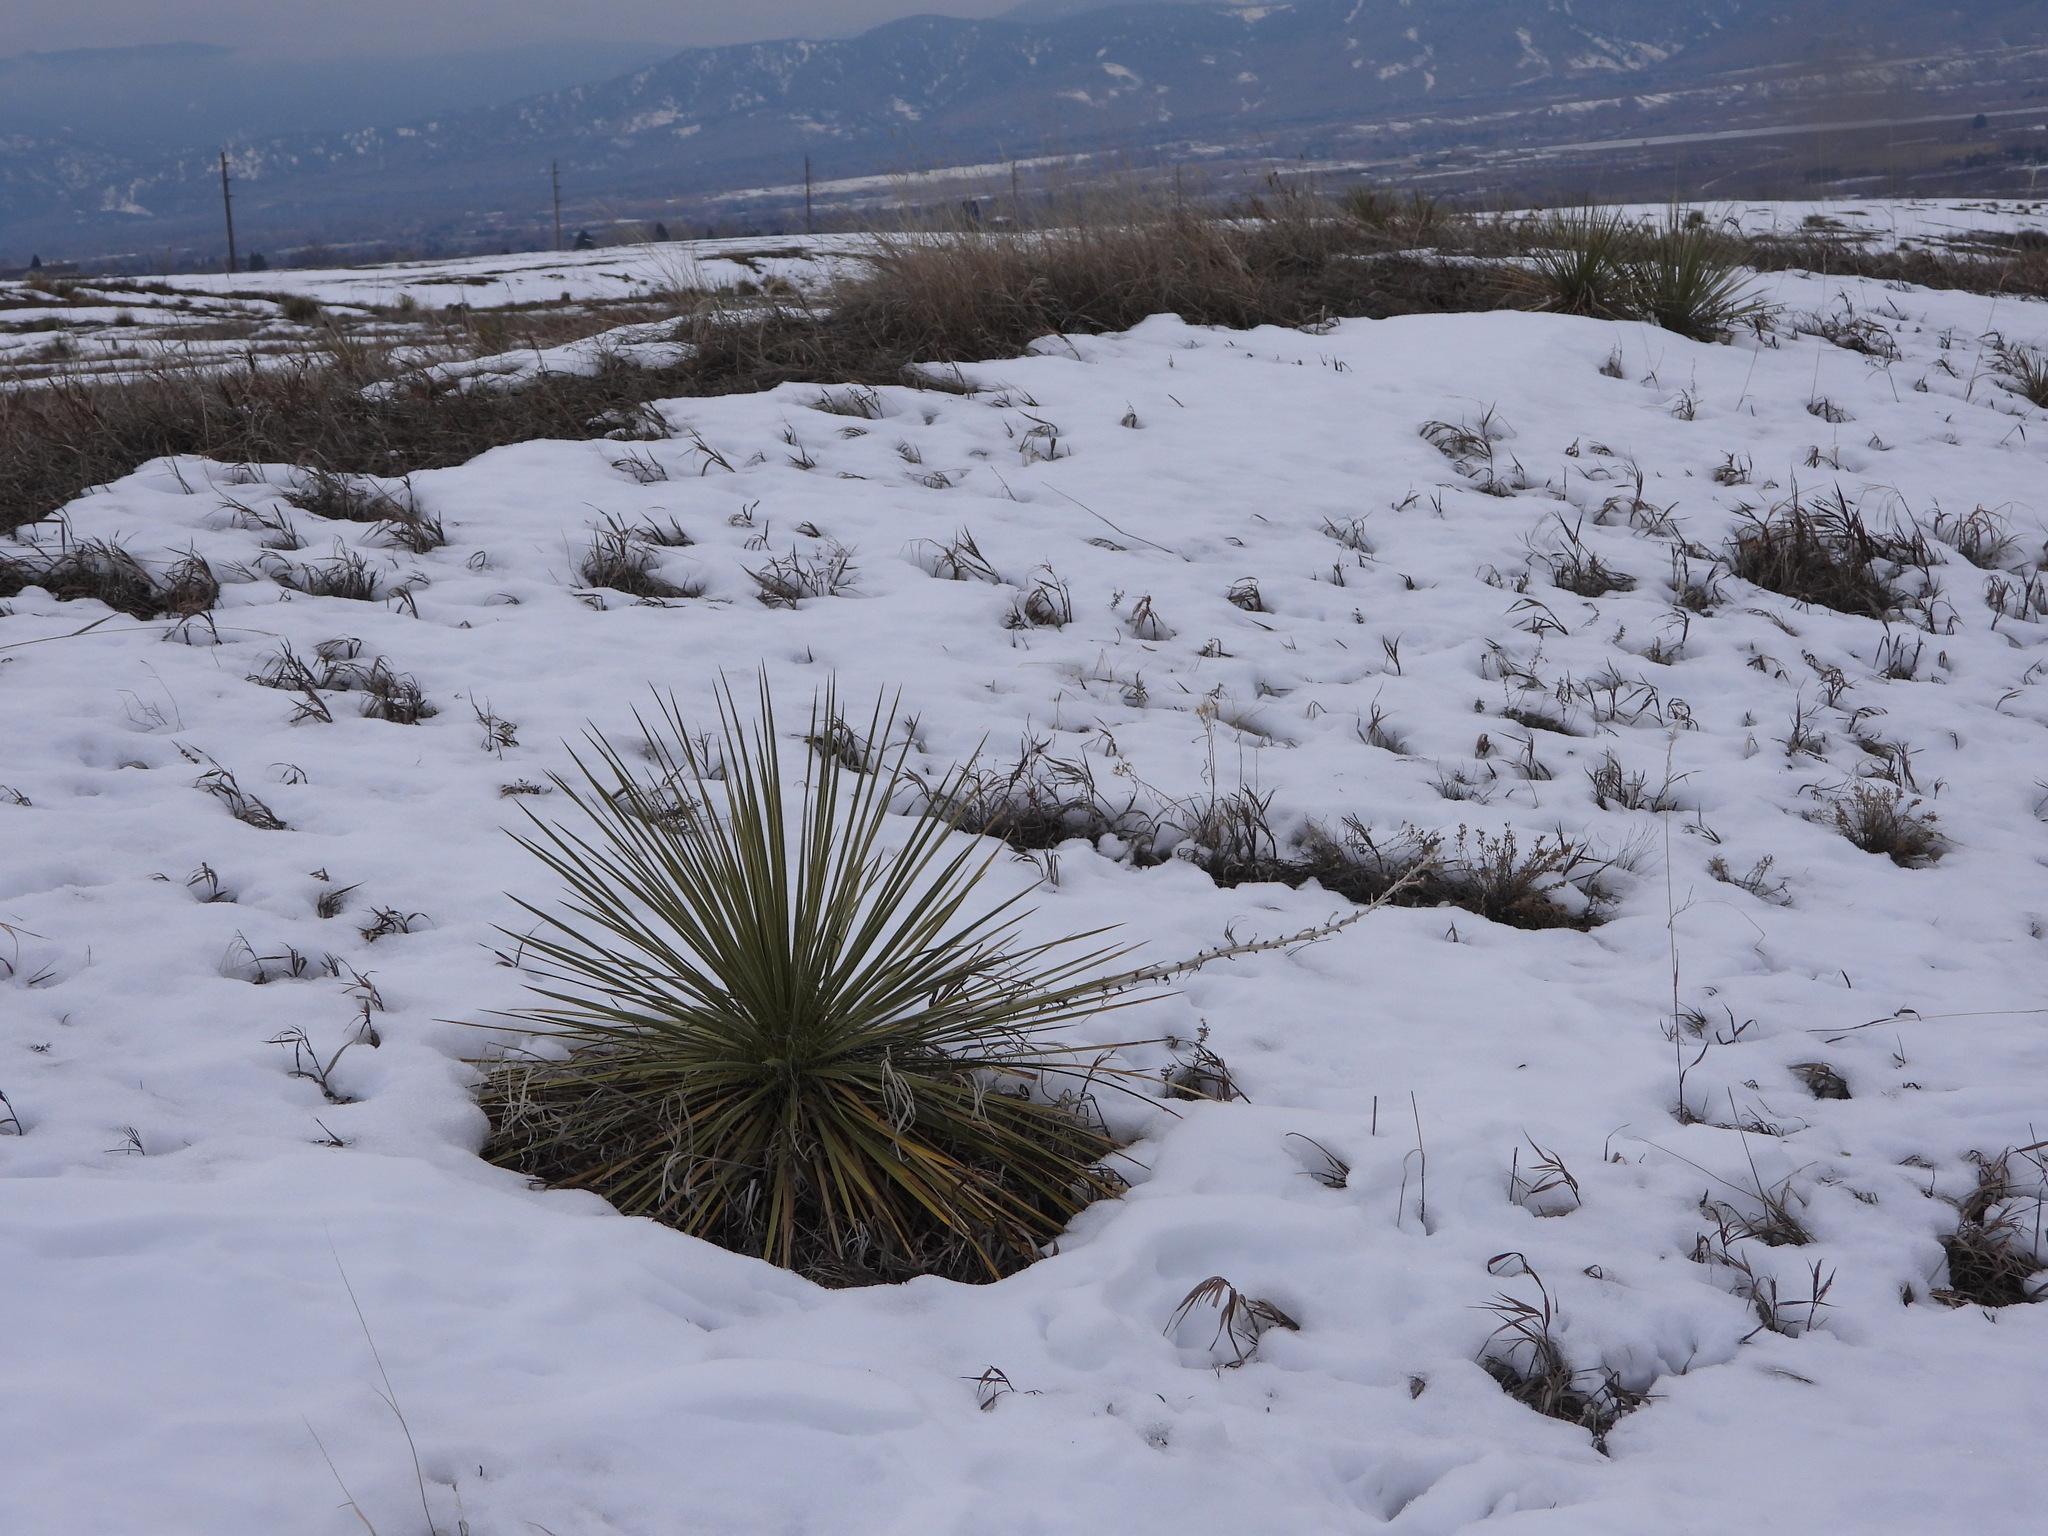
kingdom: Plantae
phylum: Tracheophyta
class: Liliopsida
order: Asparagales
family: Asparagaceae
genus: Yucca
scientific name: Yucca glauca
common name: Great plains yucca
